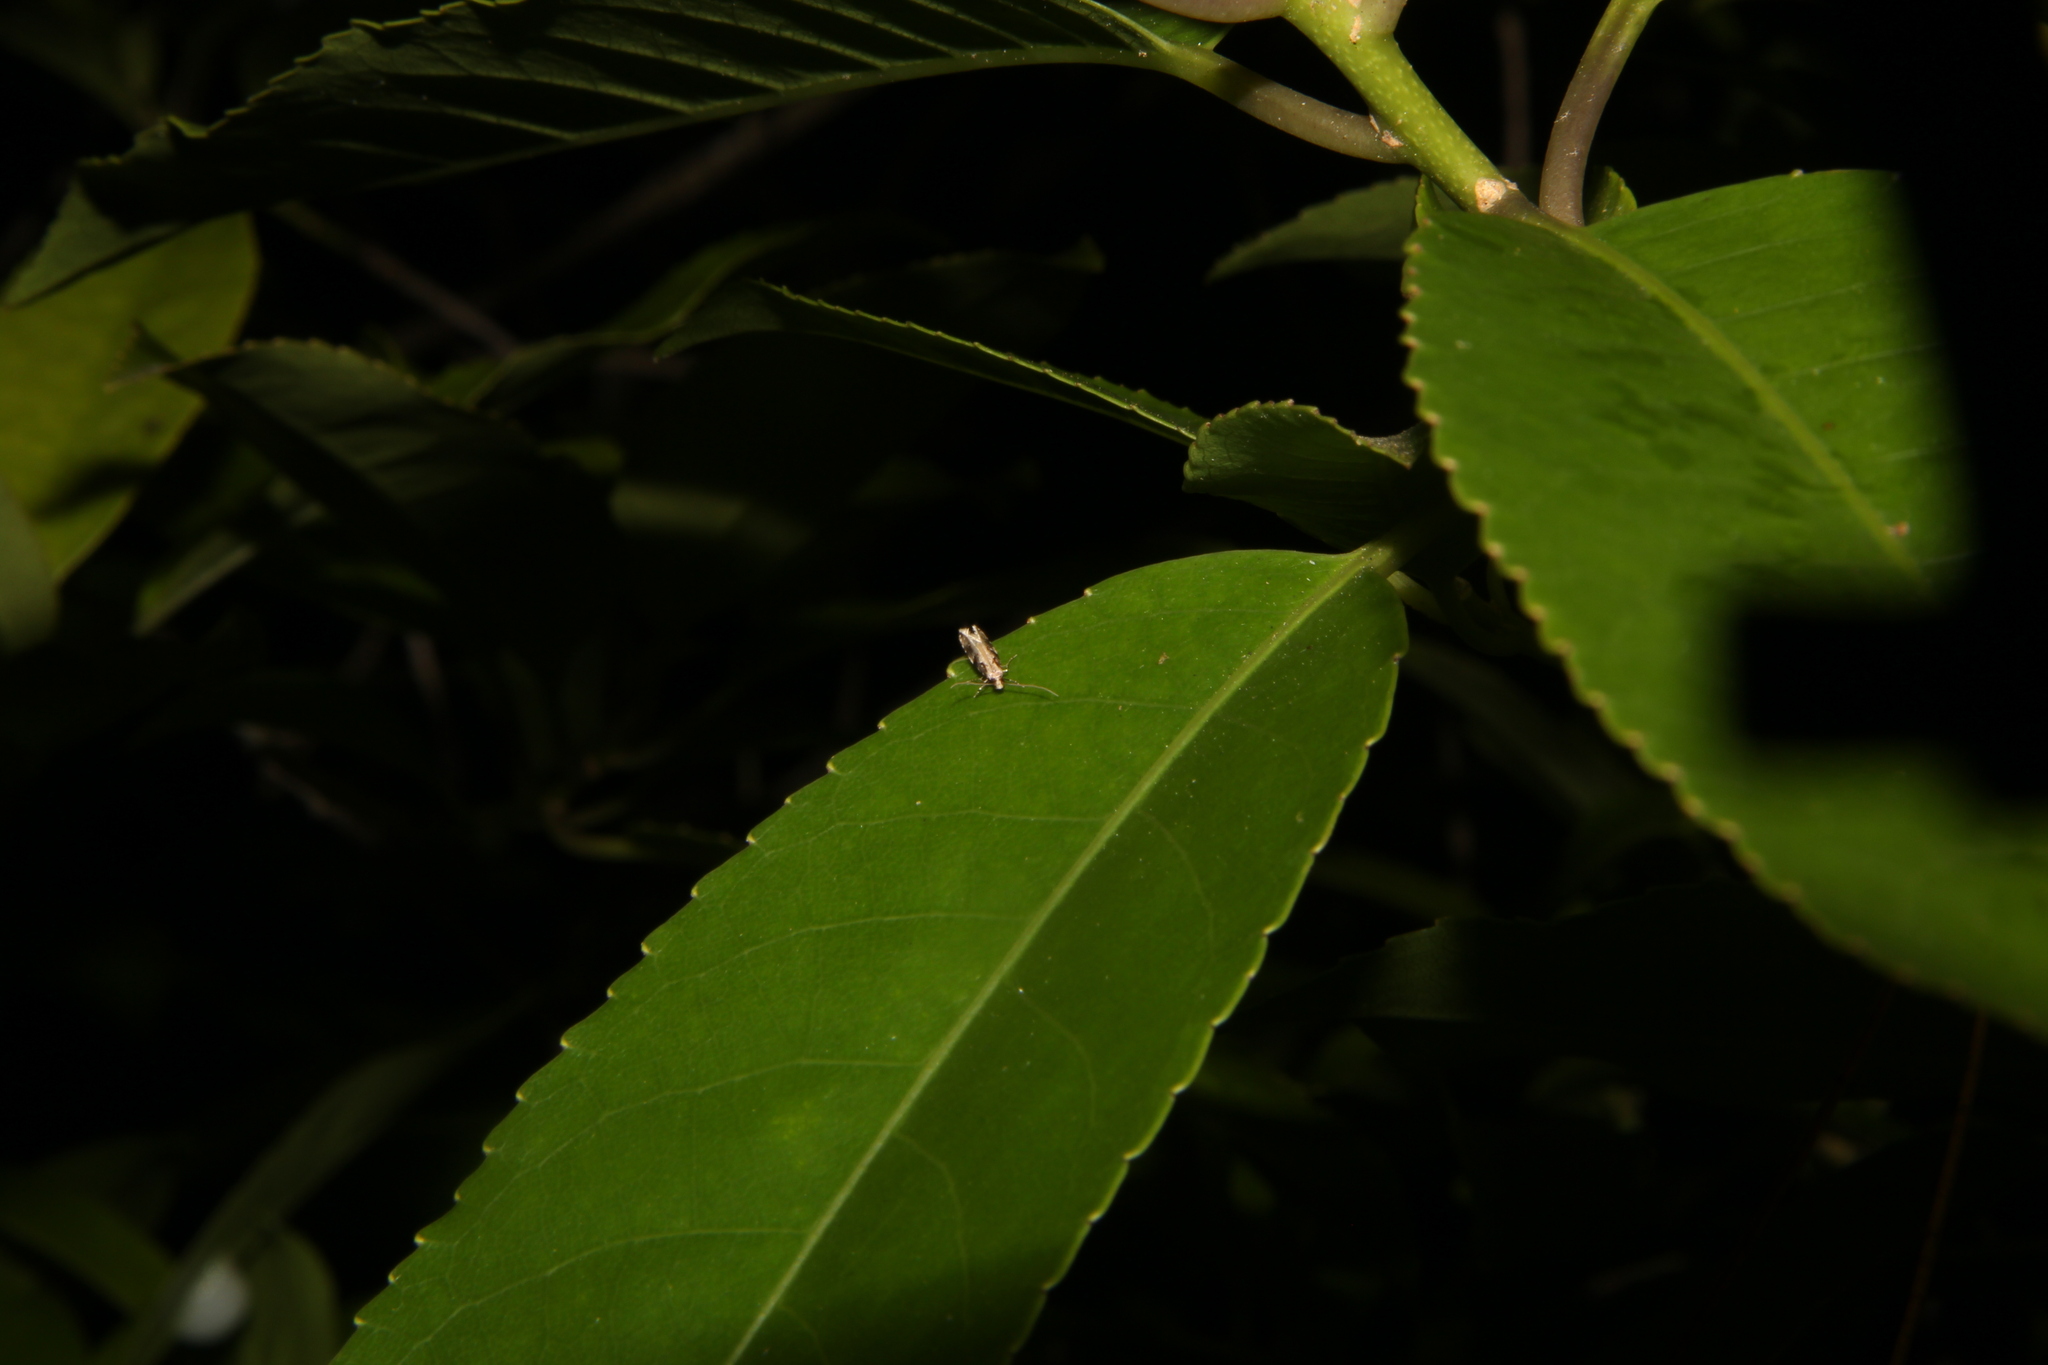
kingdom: Animalia
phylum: Arthropoda
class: Insecta
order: Lepidoptera
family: Tineidae
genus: Crypsitricha
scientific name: Crypsitricha agriopa
